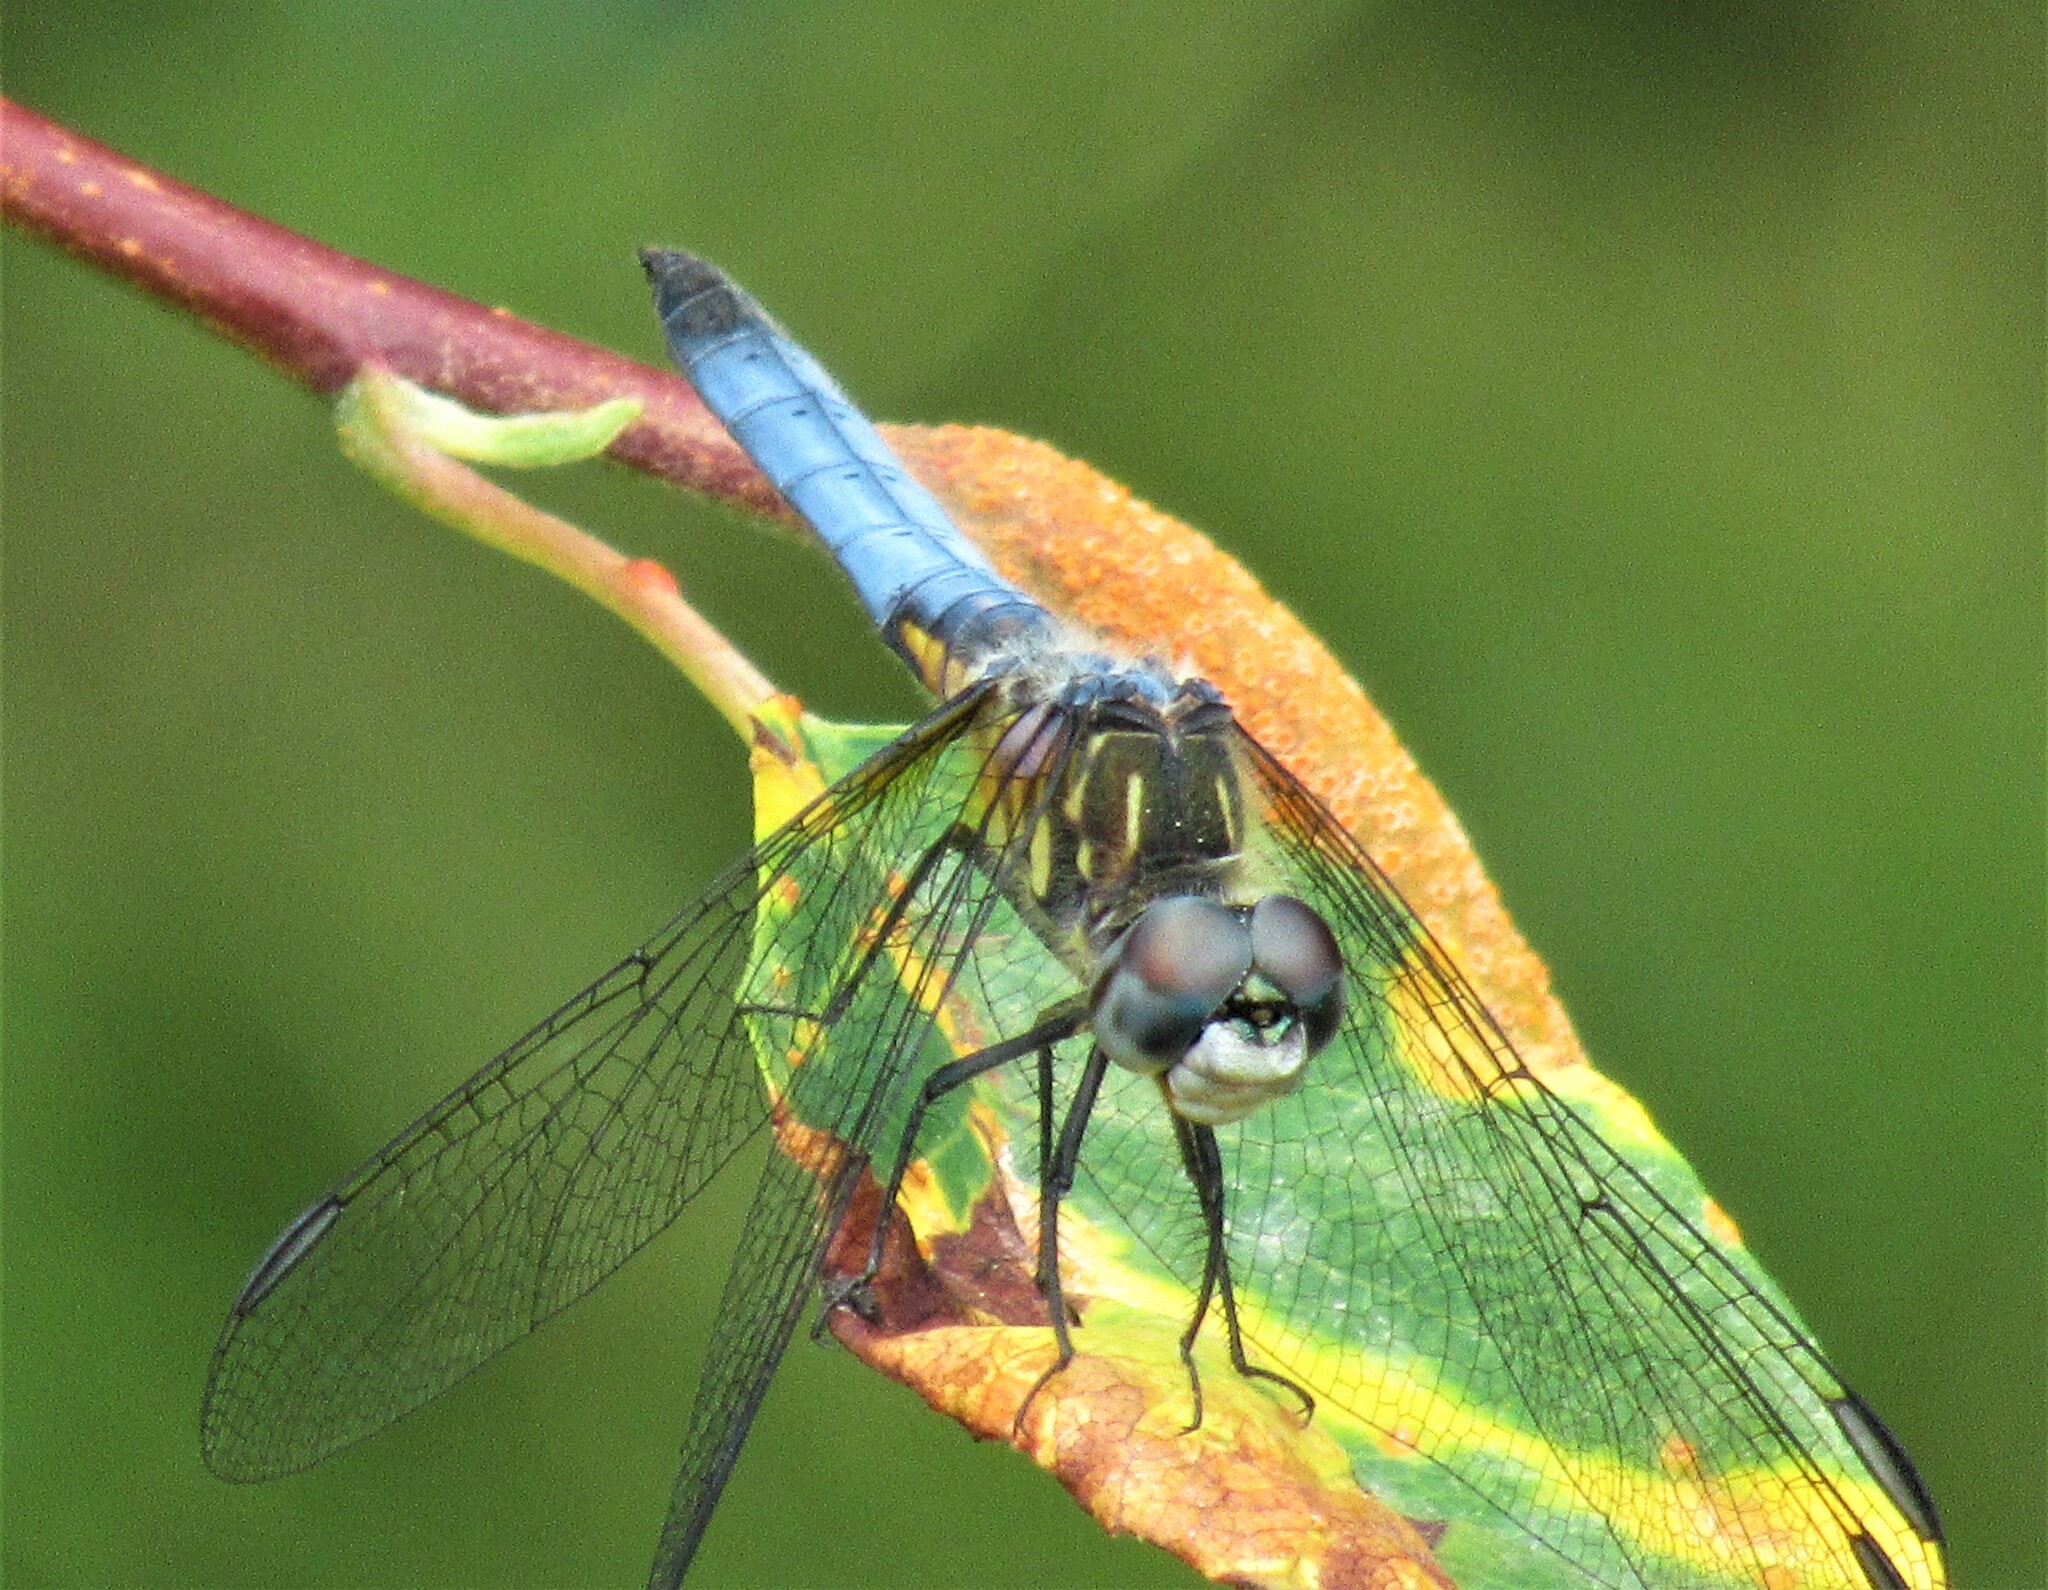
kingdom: Animalia
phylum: Arthropoda
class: Insecta
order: Odonata
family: Libellulidae
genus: Pachydiplax
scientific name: Pachydiplax longipennis
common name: Blue dasher
